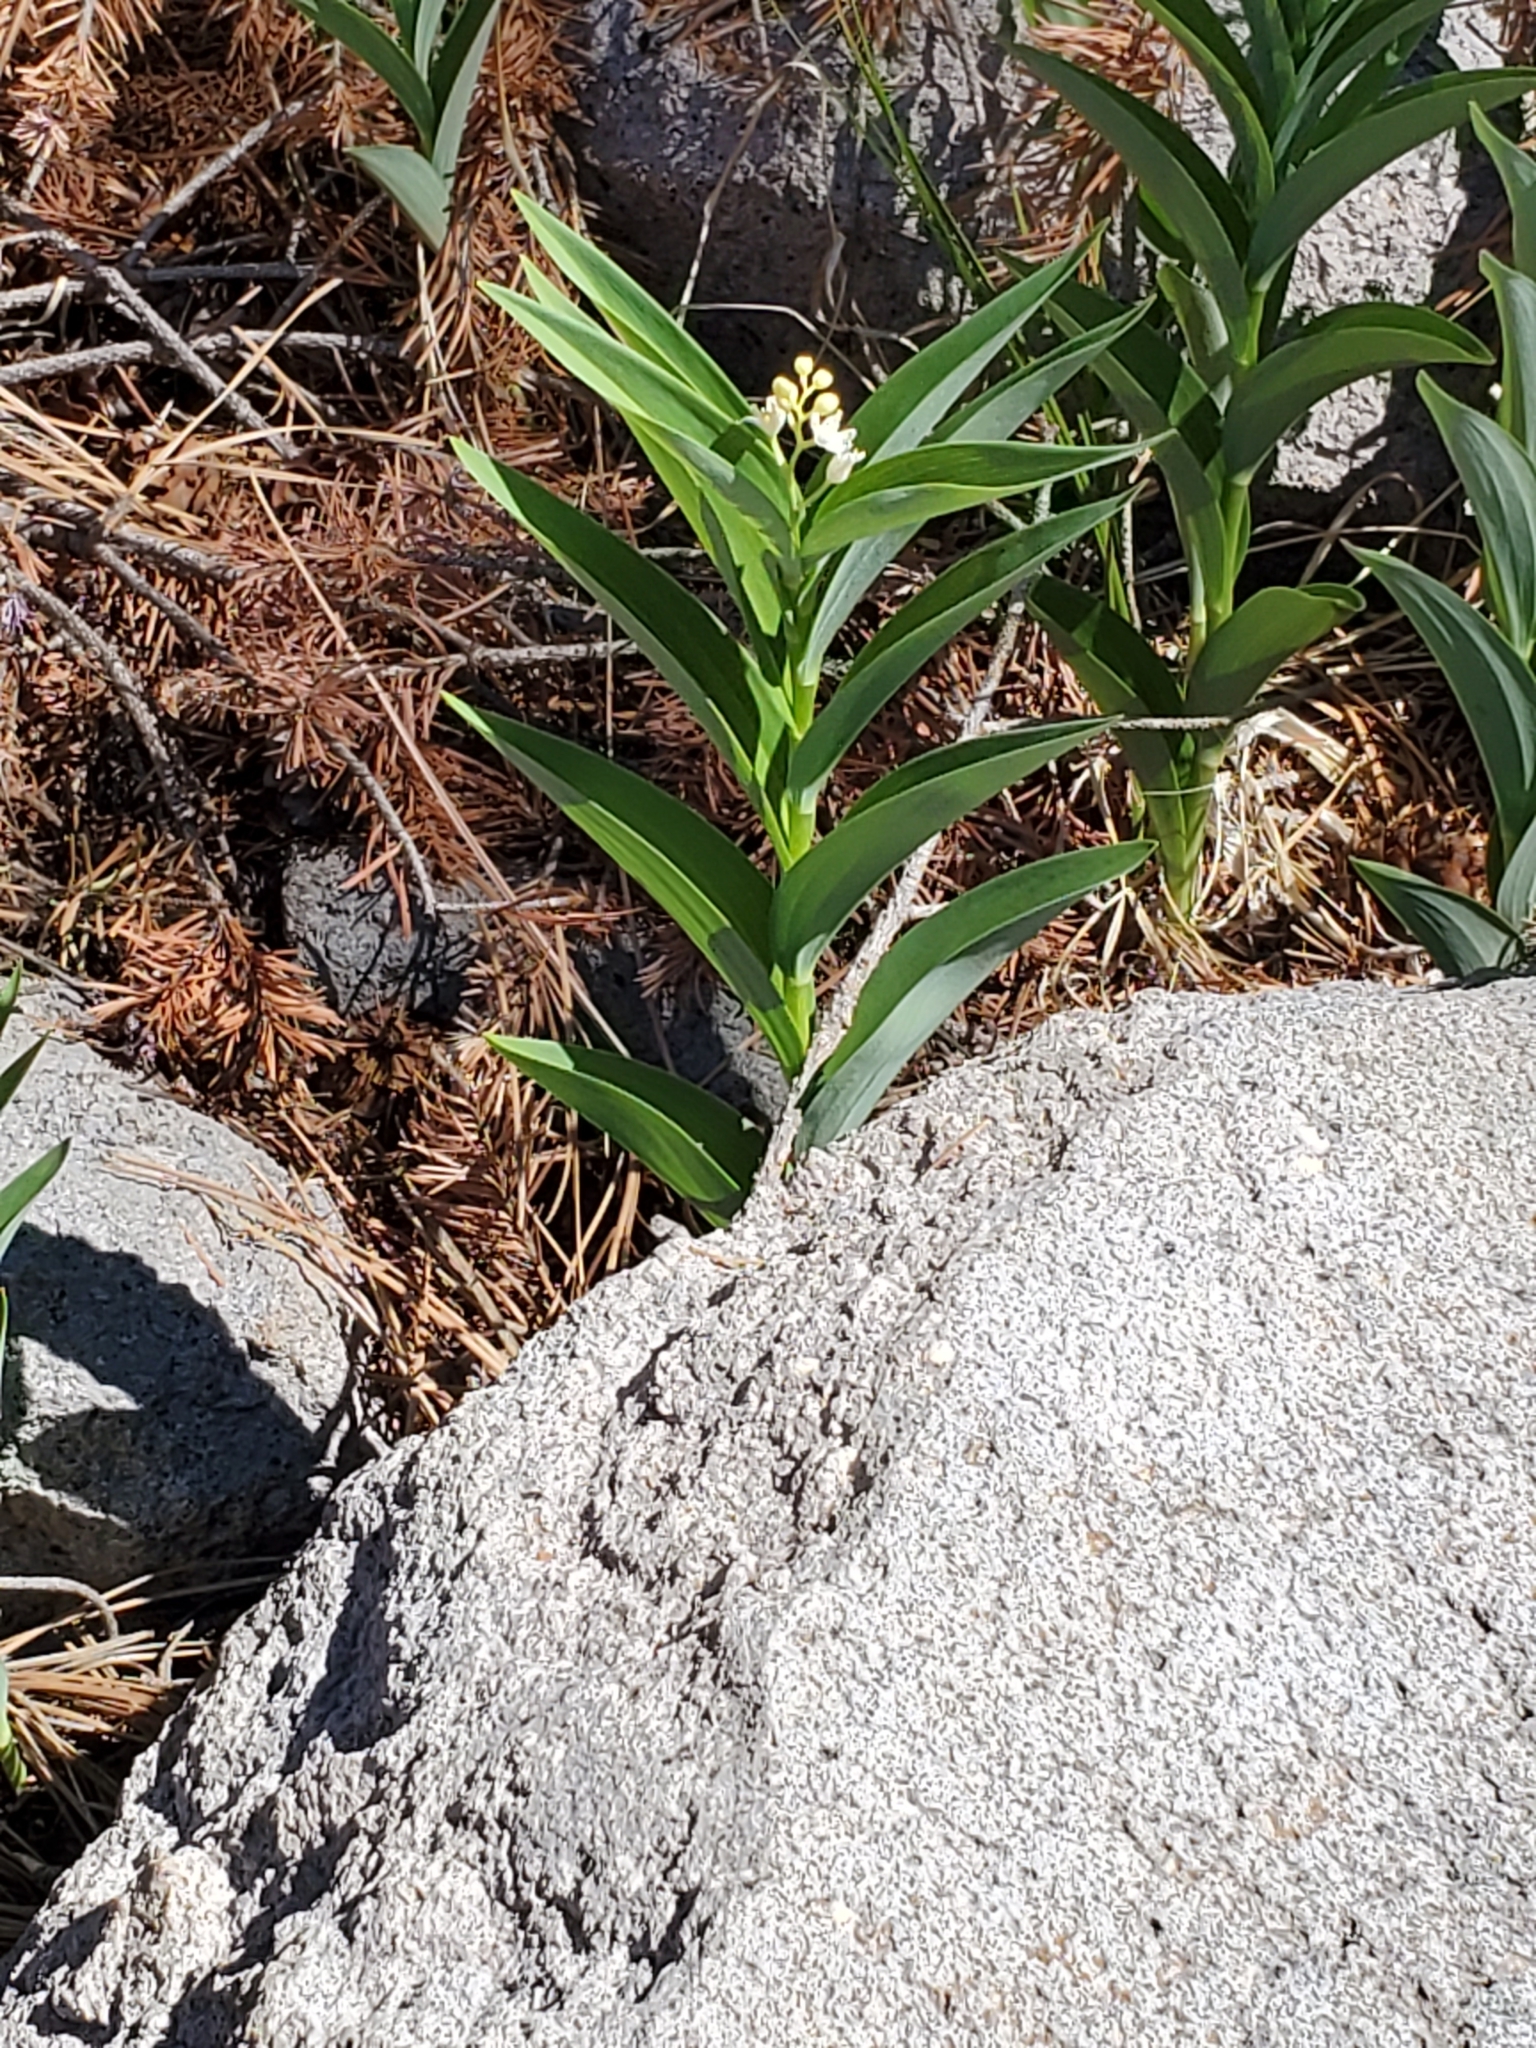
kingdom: Plantae
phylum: Tracheophyta
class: Liliopsida
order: Asparagales
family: Asparagaceae
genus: Maianthemum
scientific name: Maianthemum stellatum
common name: Little false solomon's seal
